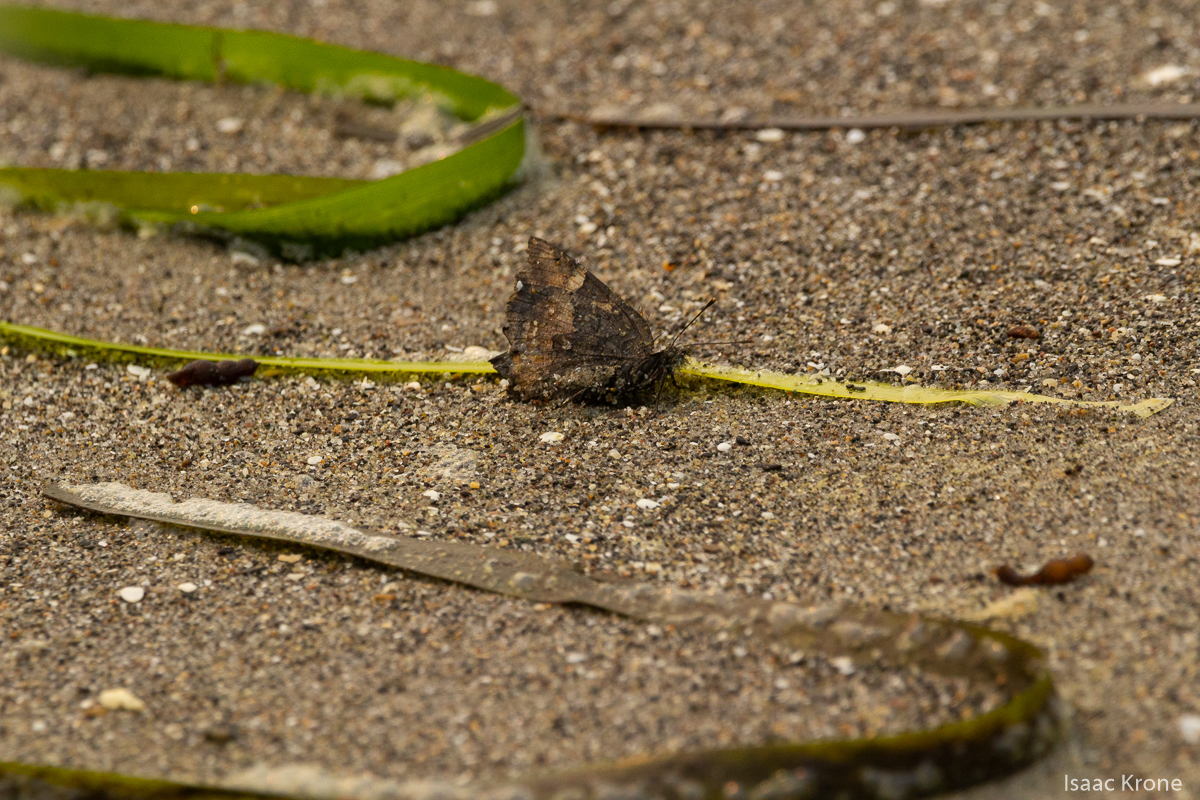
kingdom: Animalia
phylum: Arthropoda
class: Insecta
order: Lepidoptera
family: Nymphalidae
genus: Nymphalis
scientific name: Nymphalis californica
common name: California tortoiseshell
